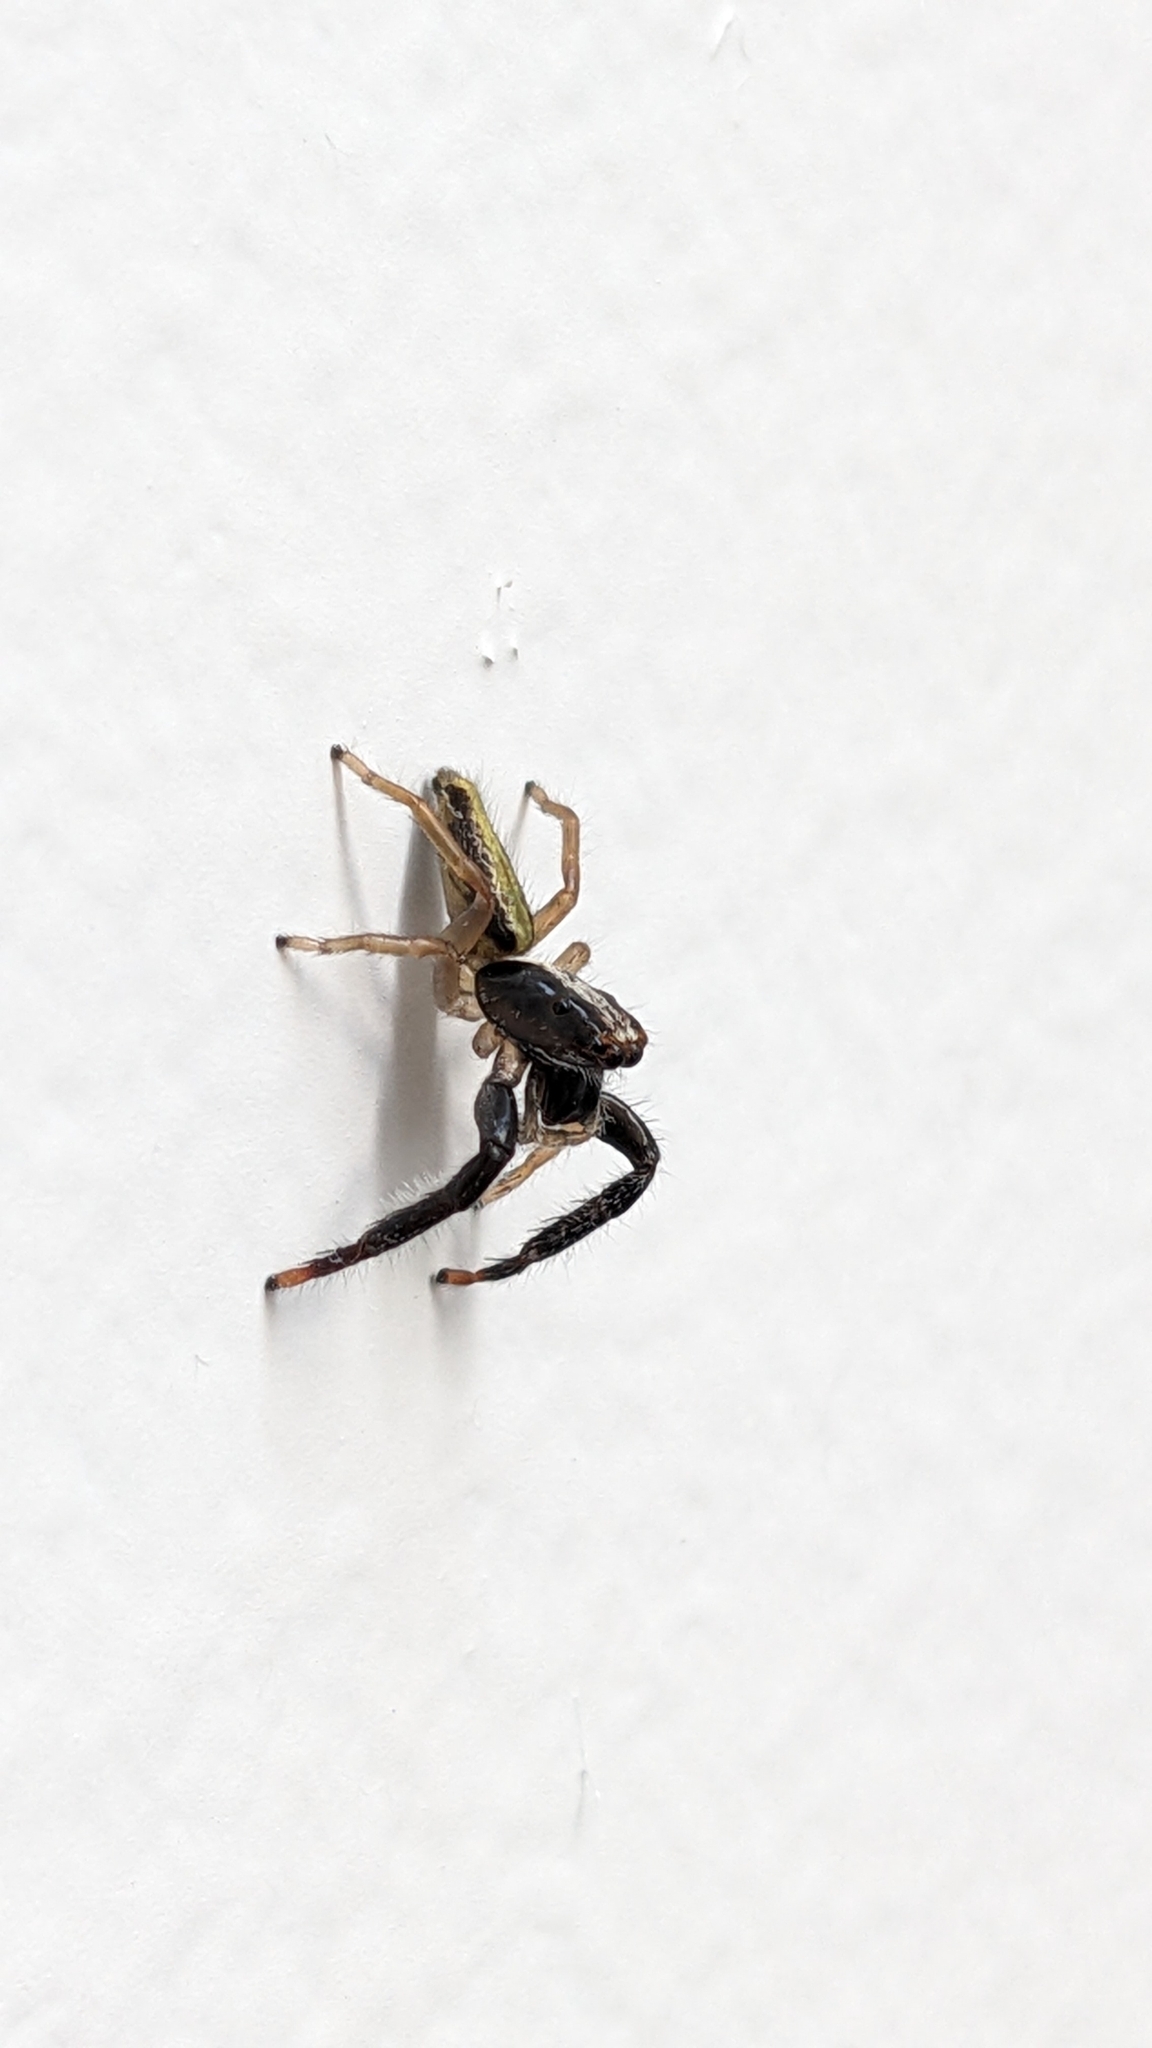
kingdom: Animalia
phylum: Arthropoda
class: Arachnida
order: Araneae
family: Salticidae
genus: Trite
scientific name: Trite planiceps
